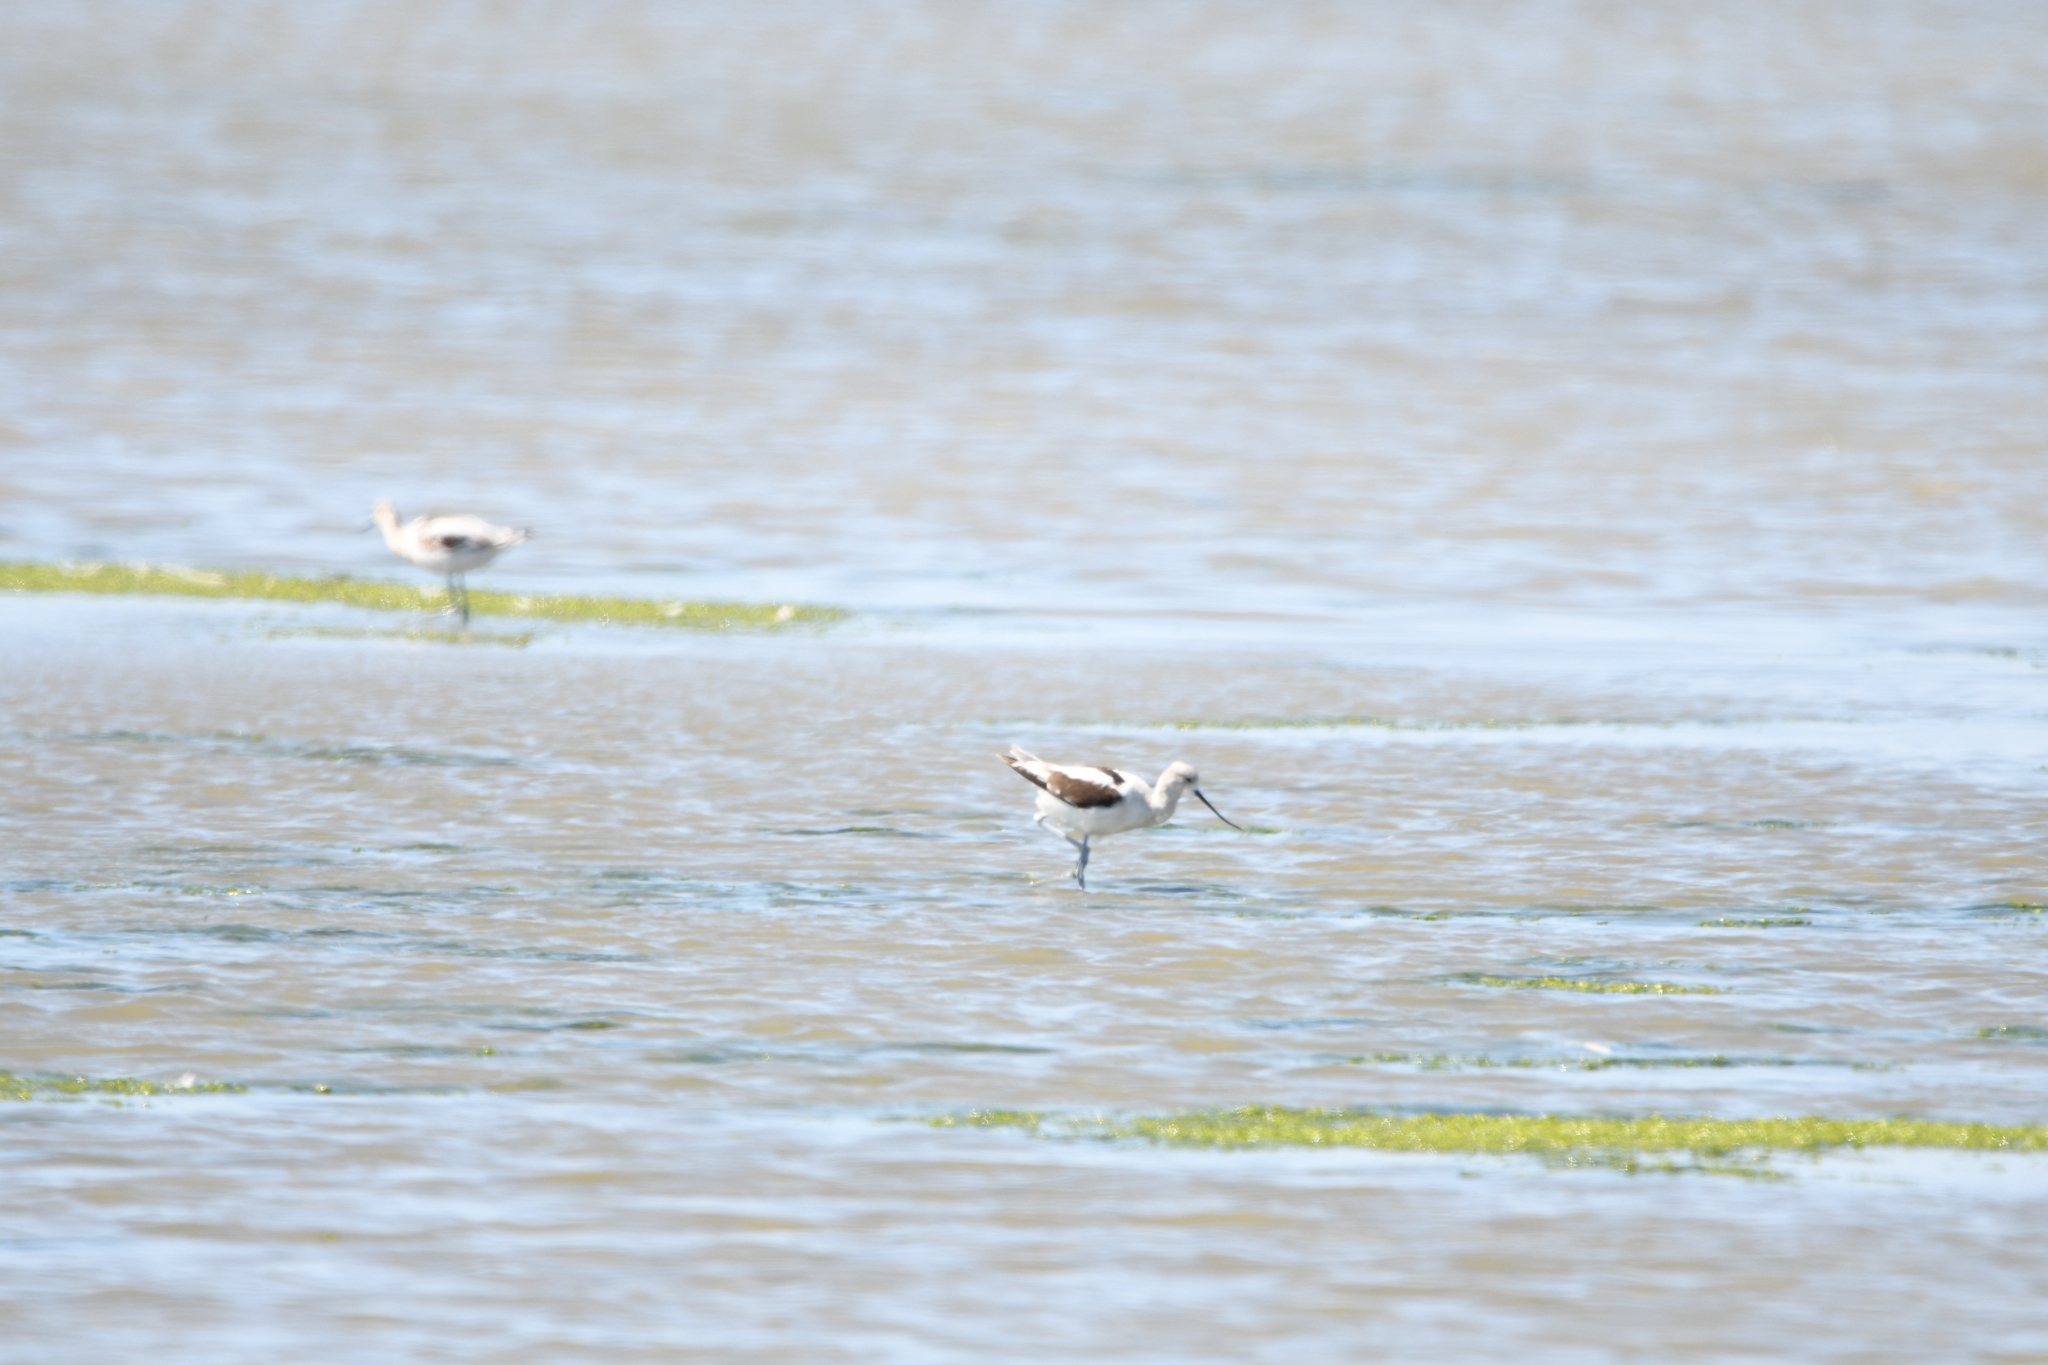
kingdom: Animalia
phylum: Chordata
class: Aves
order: Charadriiformes
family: Recurvirostridae
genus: Recurvirostra
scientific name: Recurvirostra americana
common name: American avocet
